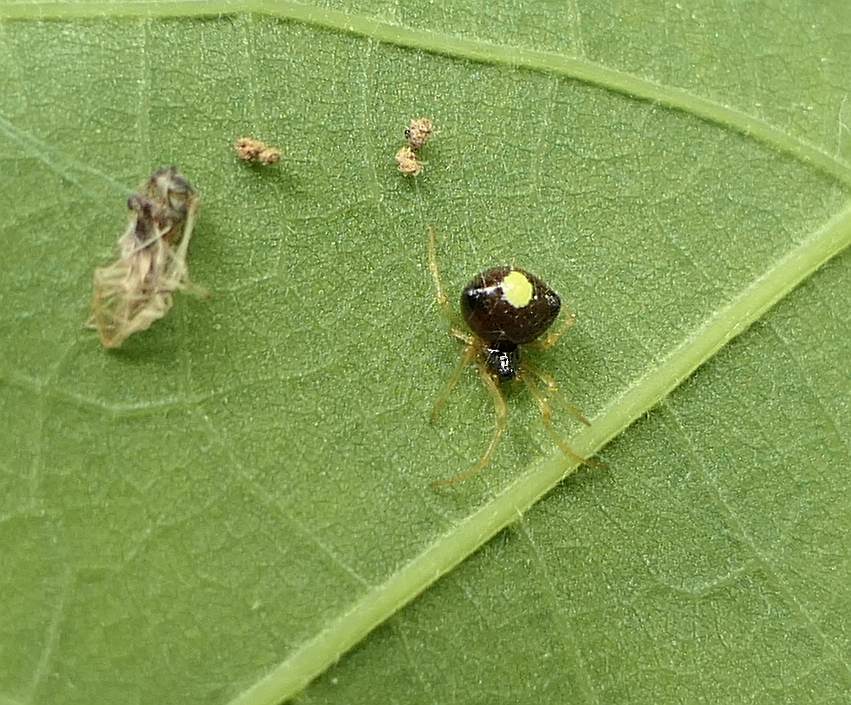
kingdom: Animalia
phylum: Arthropoda
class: Arachnida
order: Araneae
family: Theridiidae
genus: Theridula
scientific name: Theridula emertoni
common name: Emerton's bitubercled cobweaver
